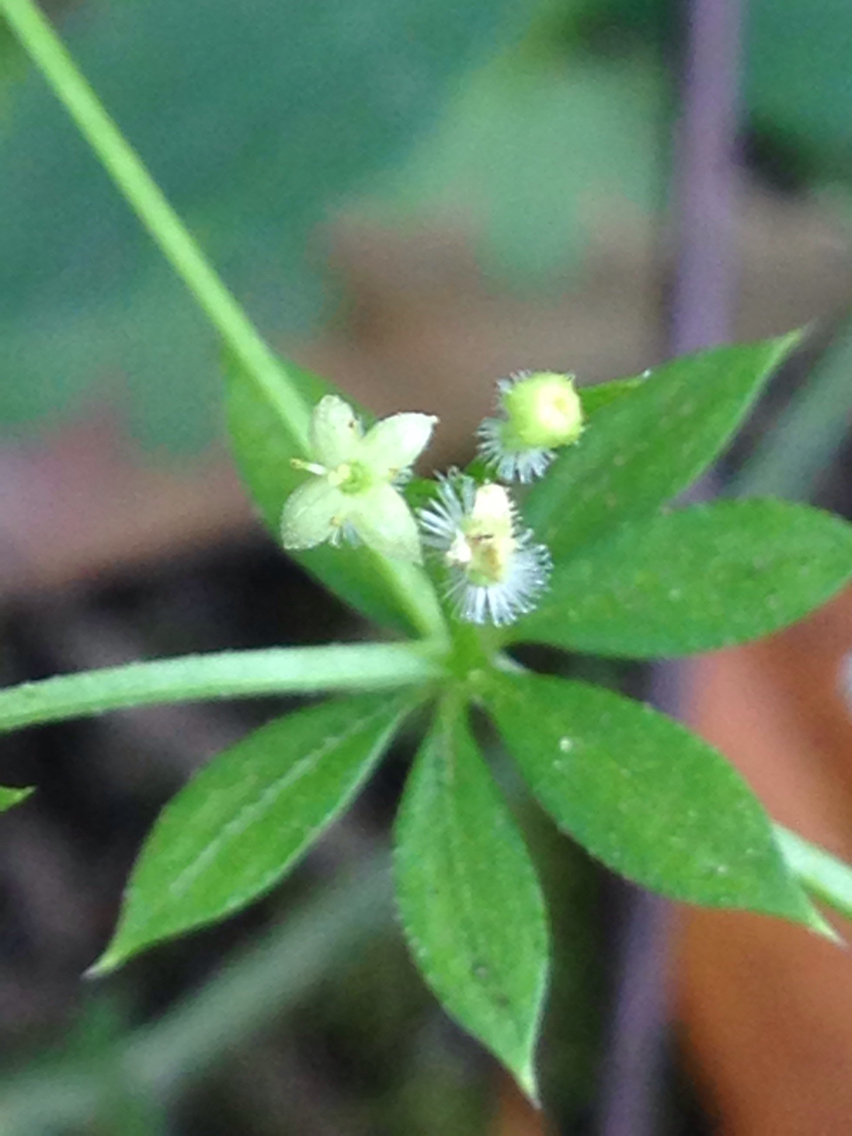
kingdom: Plantae
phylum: Tracheophyta
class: Magnoliopsida
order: Gentianales
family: Rubiaceae
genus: Galium
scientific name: Galium triflorum
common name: Fragrant bedstraw
